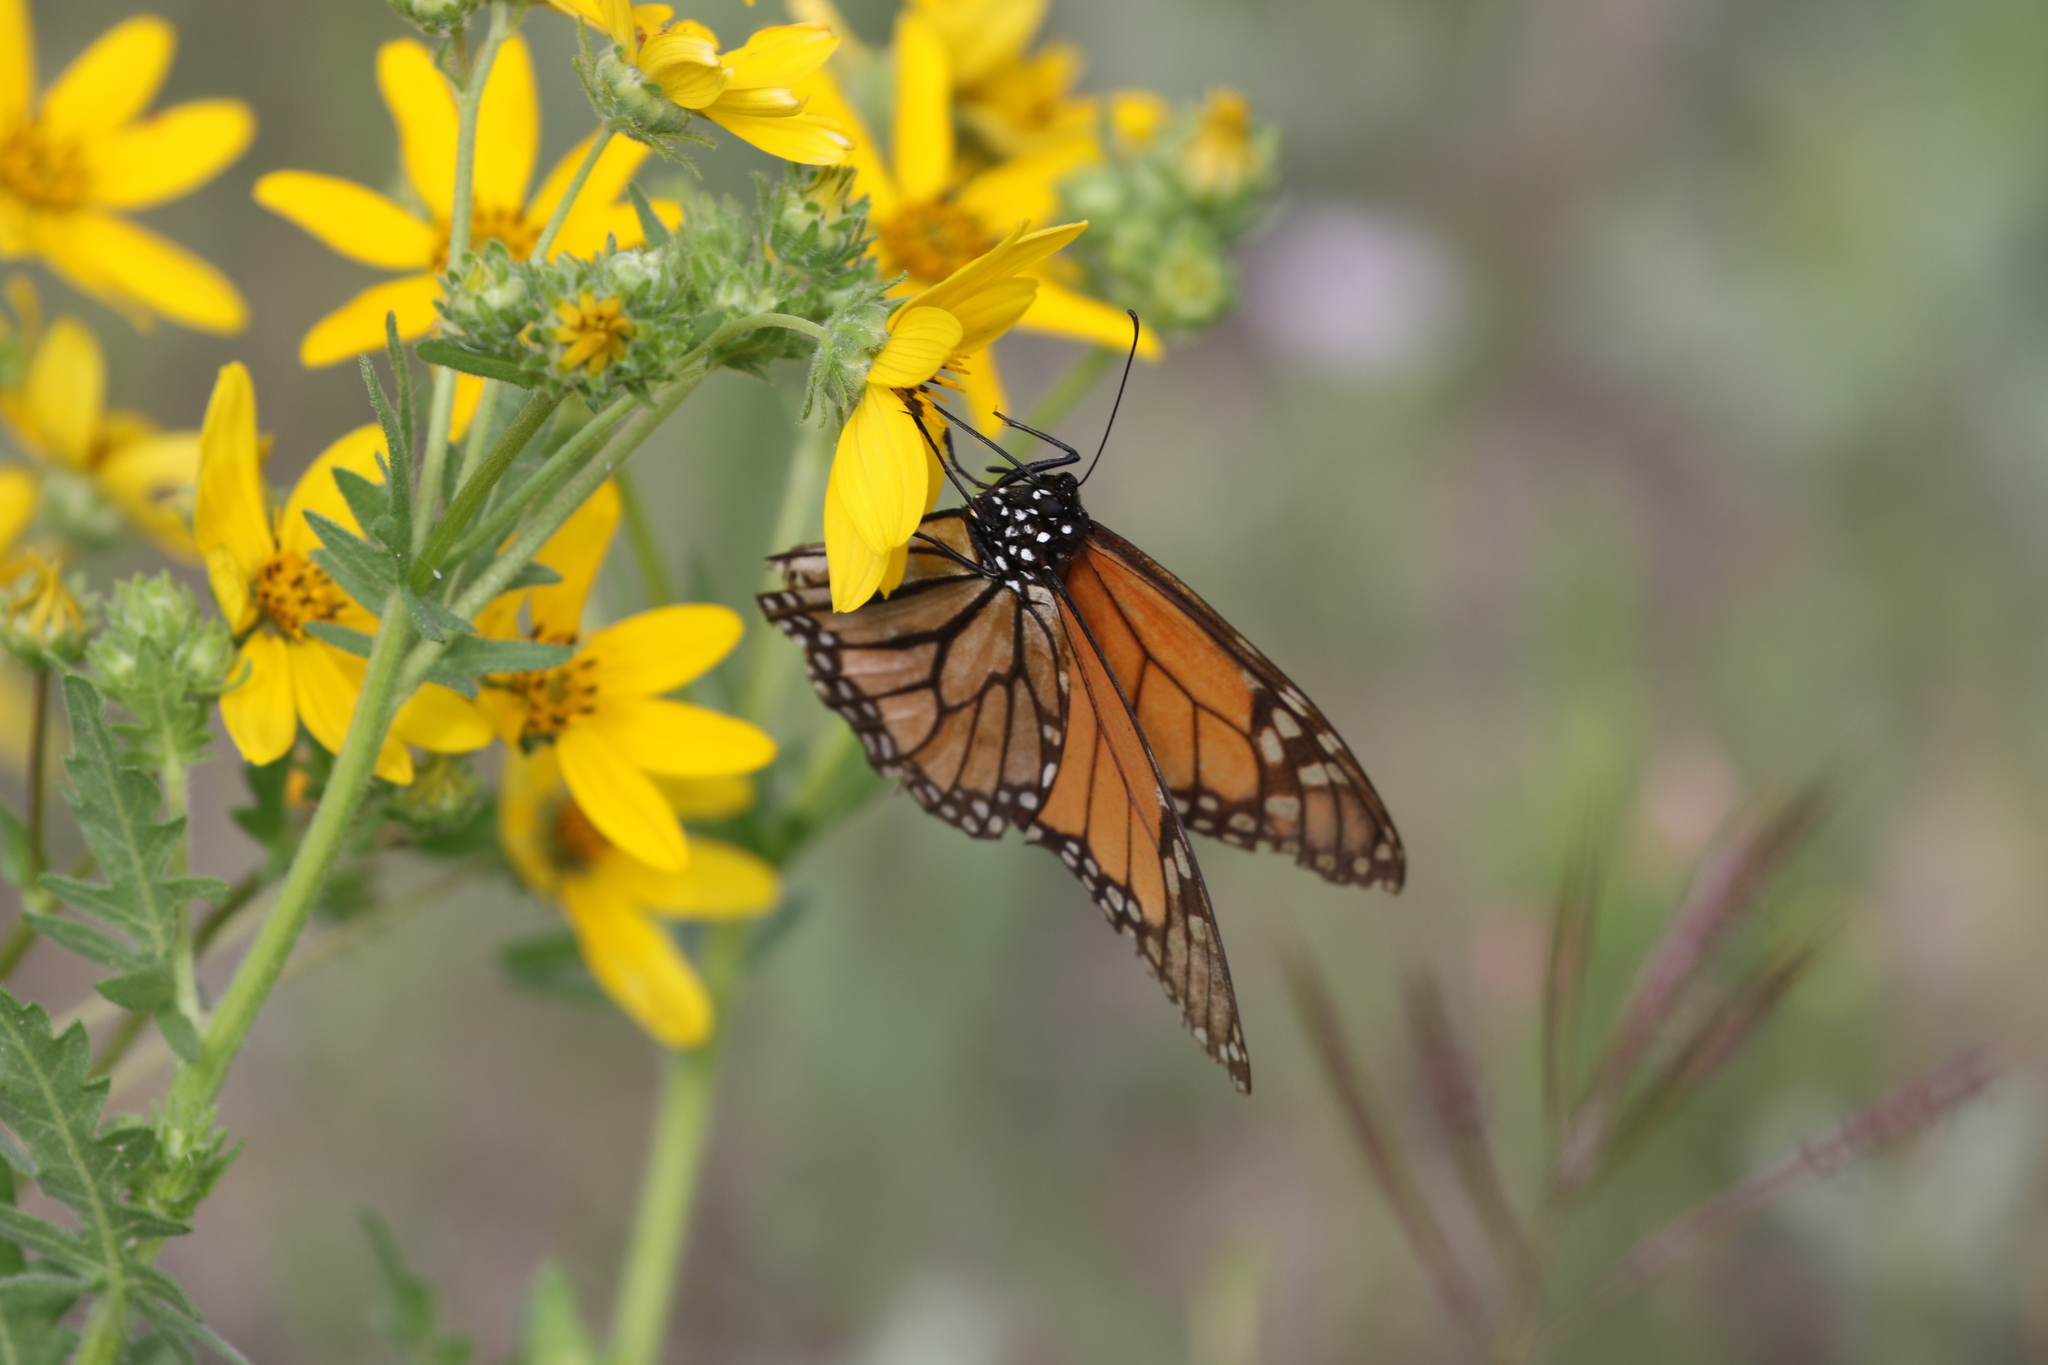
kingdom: Animalia
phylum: Arthropoda
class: Insecta
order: Lepidoptera
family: Nymphalidae
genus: Danaus
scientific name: Danaus plexippus
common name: Monarch
